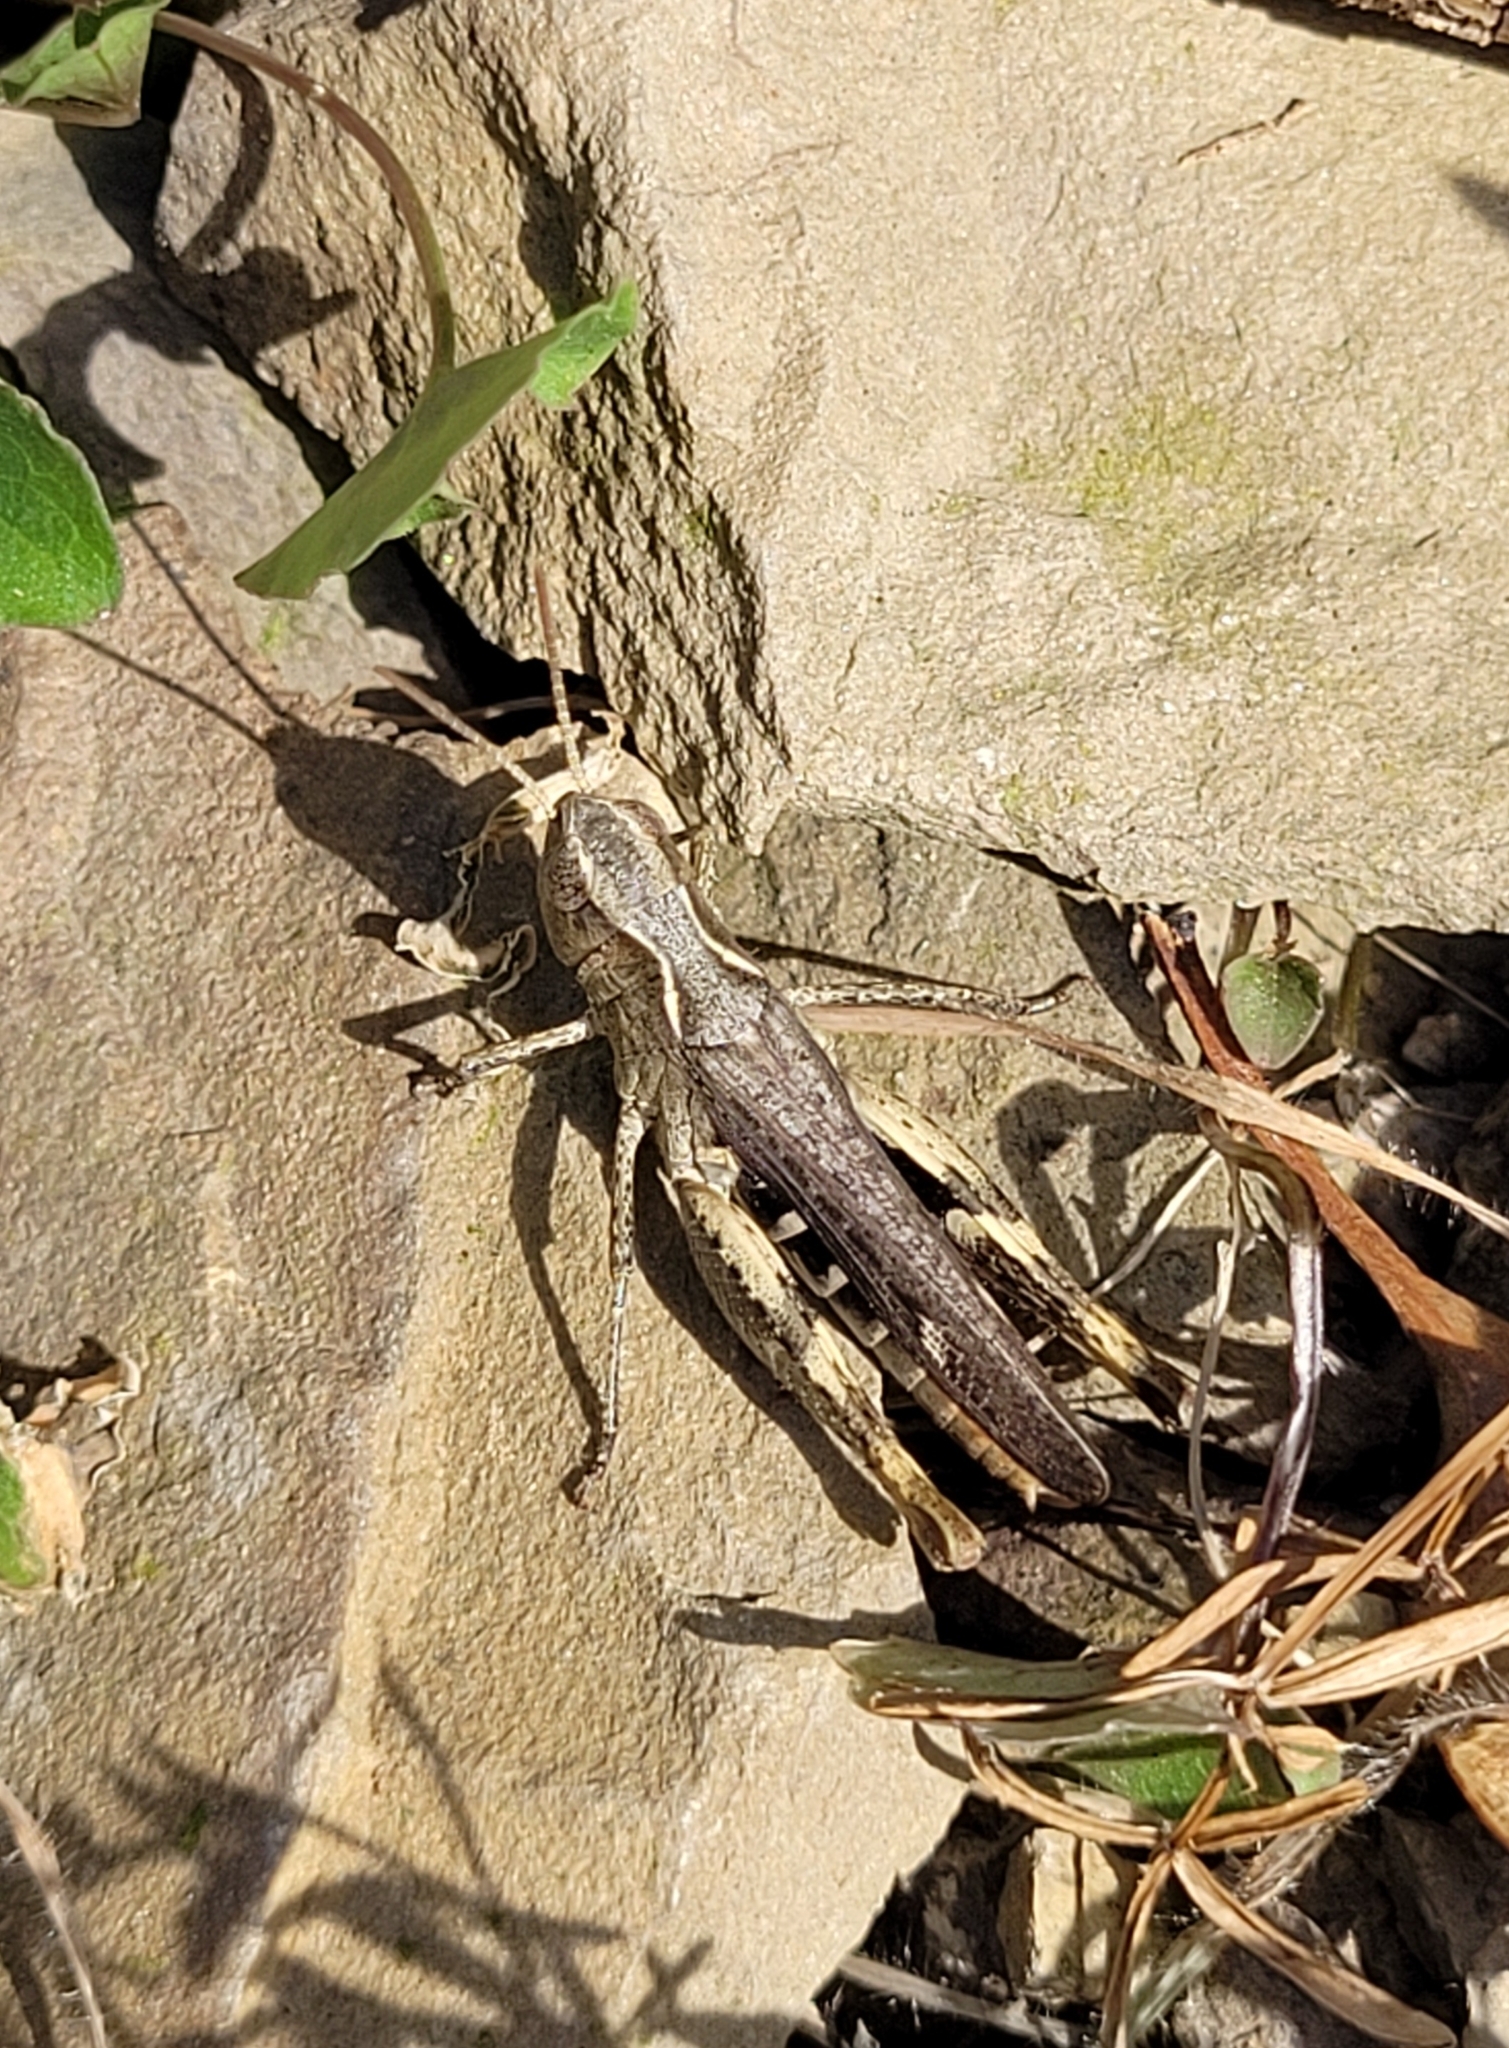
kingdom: Animalia
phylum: Arthropoda
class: Insecta
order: Orthoptera
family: Acrididae
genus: Chorthippus
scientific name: Chorthippus vagans
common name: Heath grasshopper
